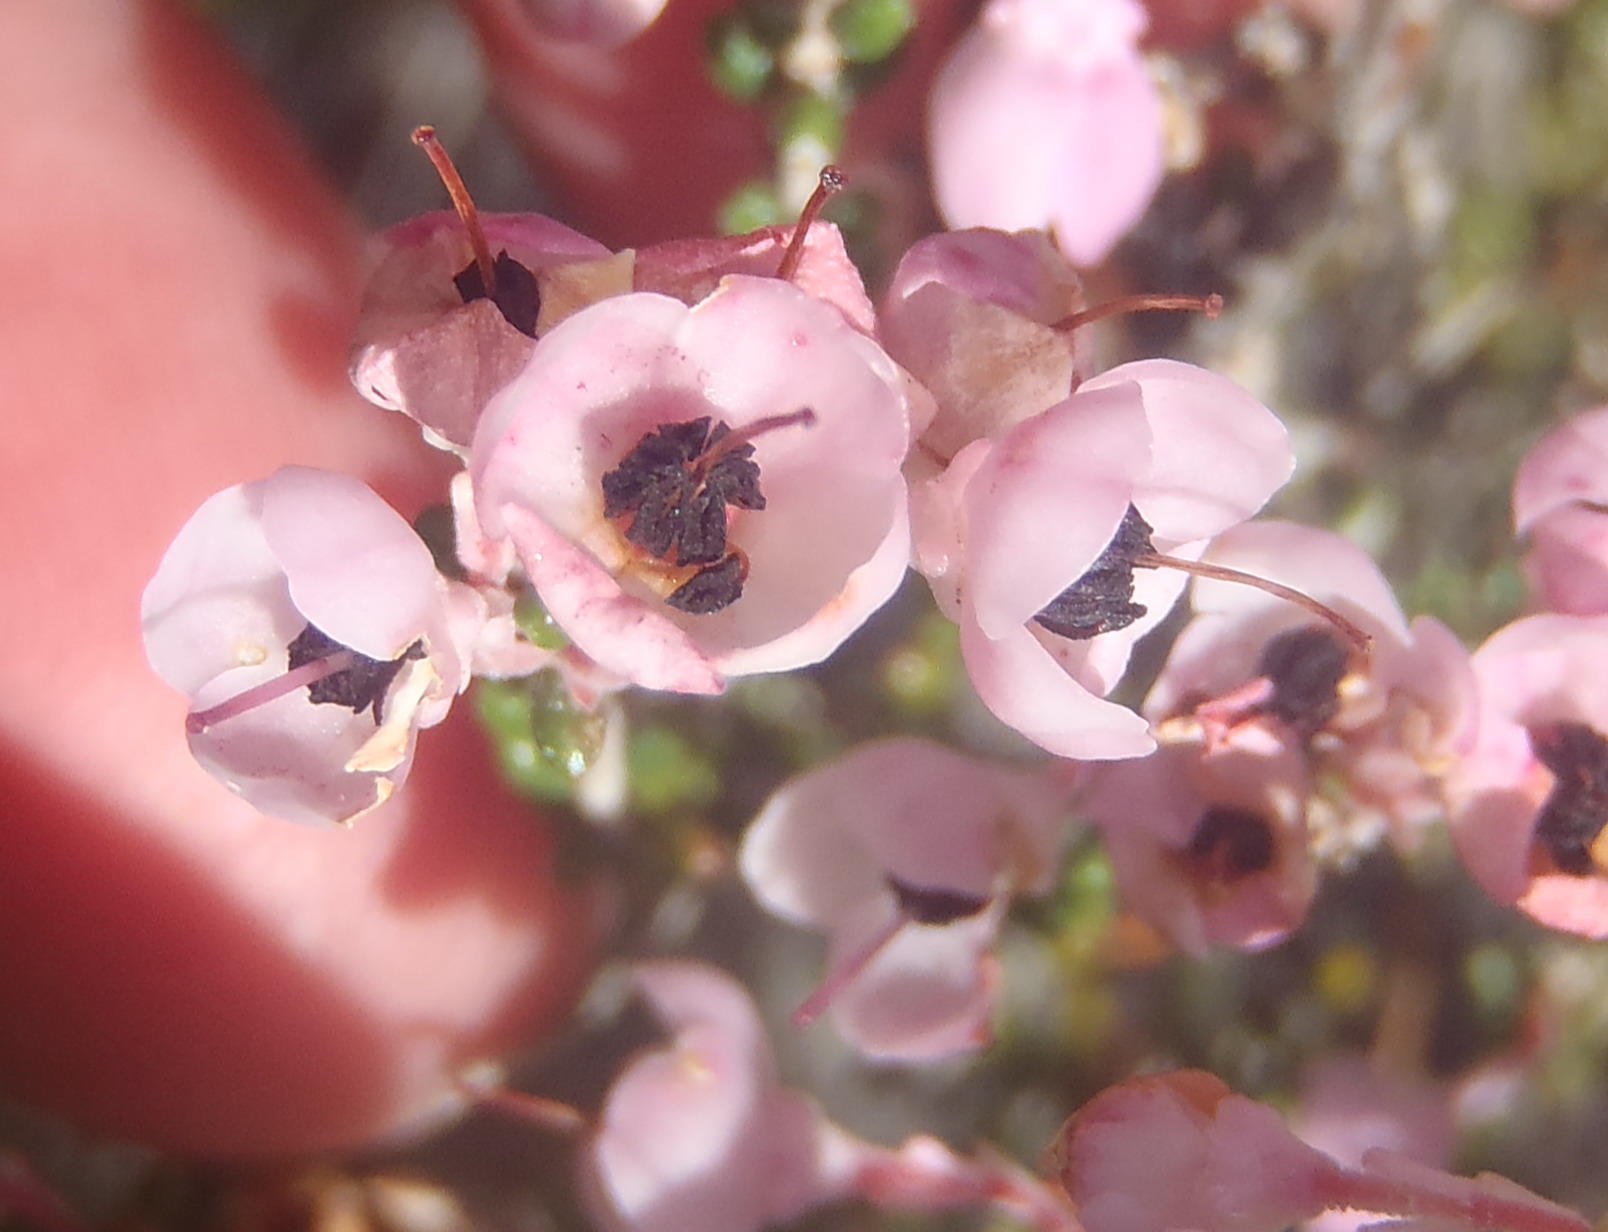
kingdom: Plantae
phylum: Tracheophyta
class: Magnoliopsida
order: Ericales
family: Ericaceae
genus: Erica
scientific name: Erica melanthera
